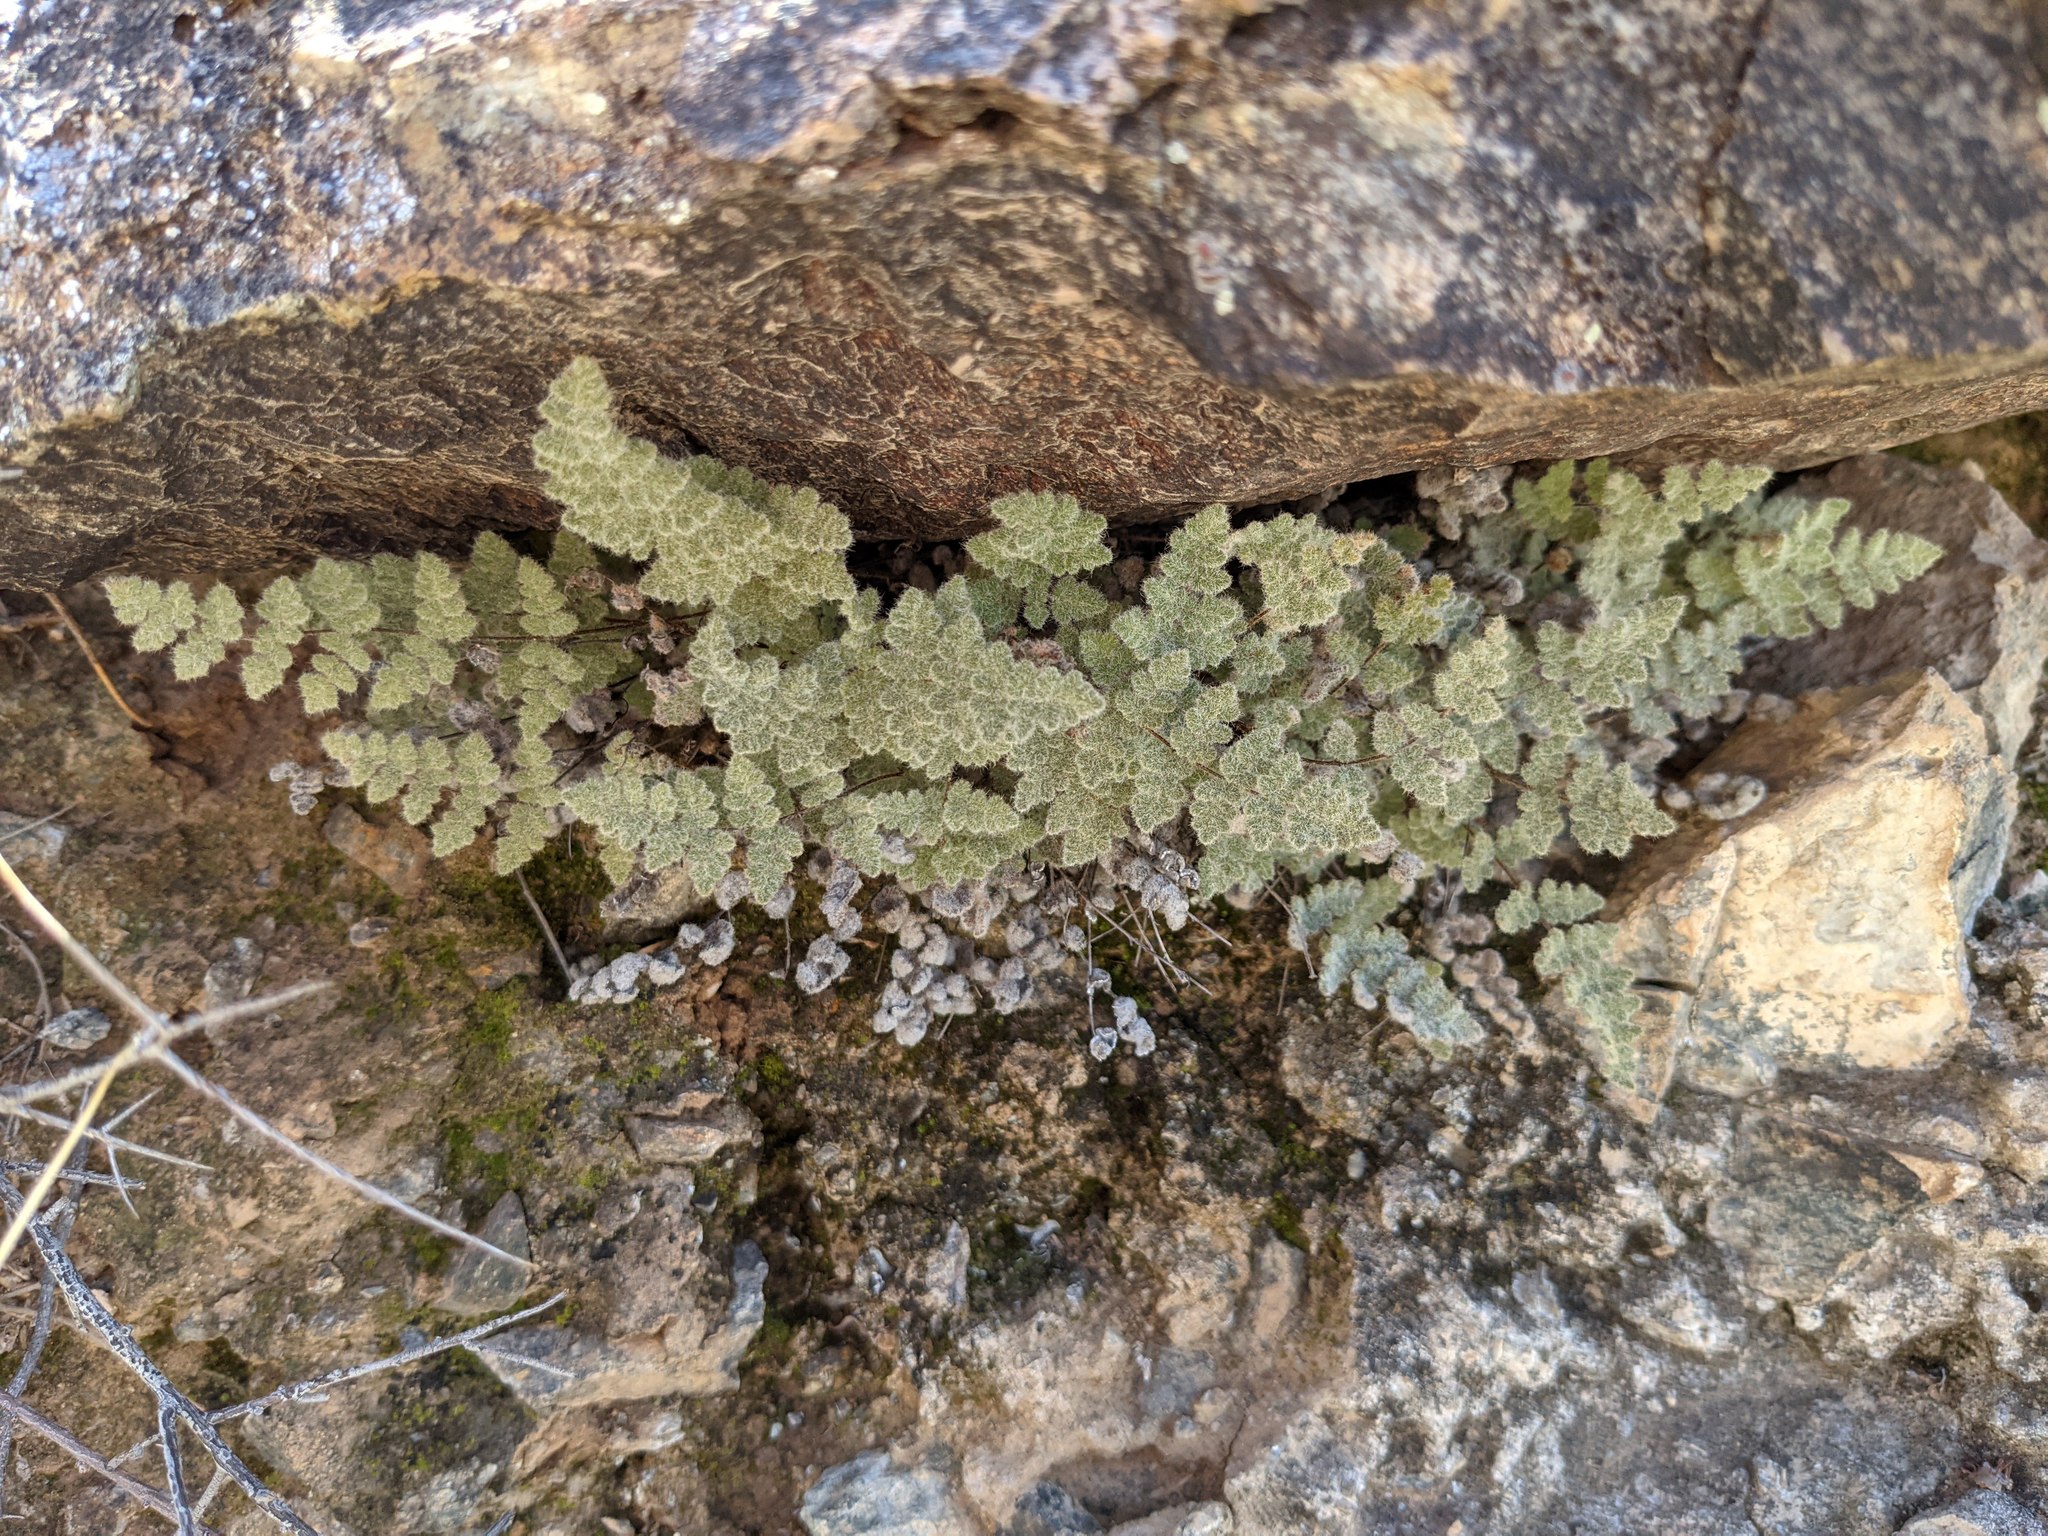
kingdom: Plantae
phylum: Tracheophyta
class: Polypodiopsida
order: Polypodiales
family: Pteridaceae
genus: Myriopteris
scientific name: Myriopteris parryi
